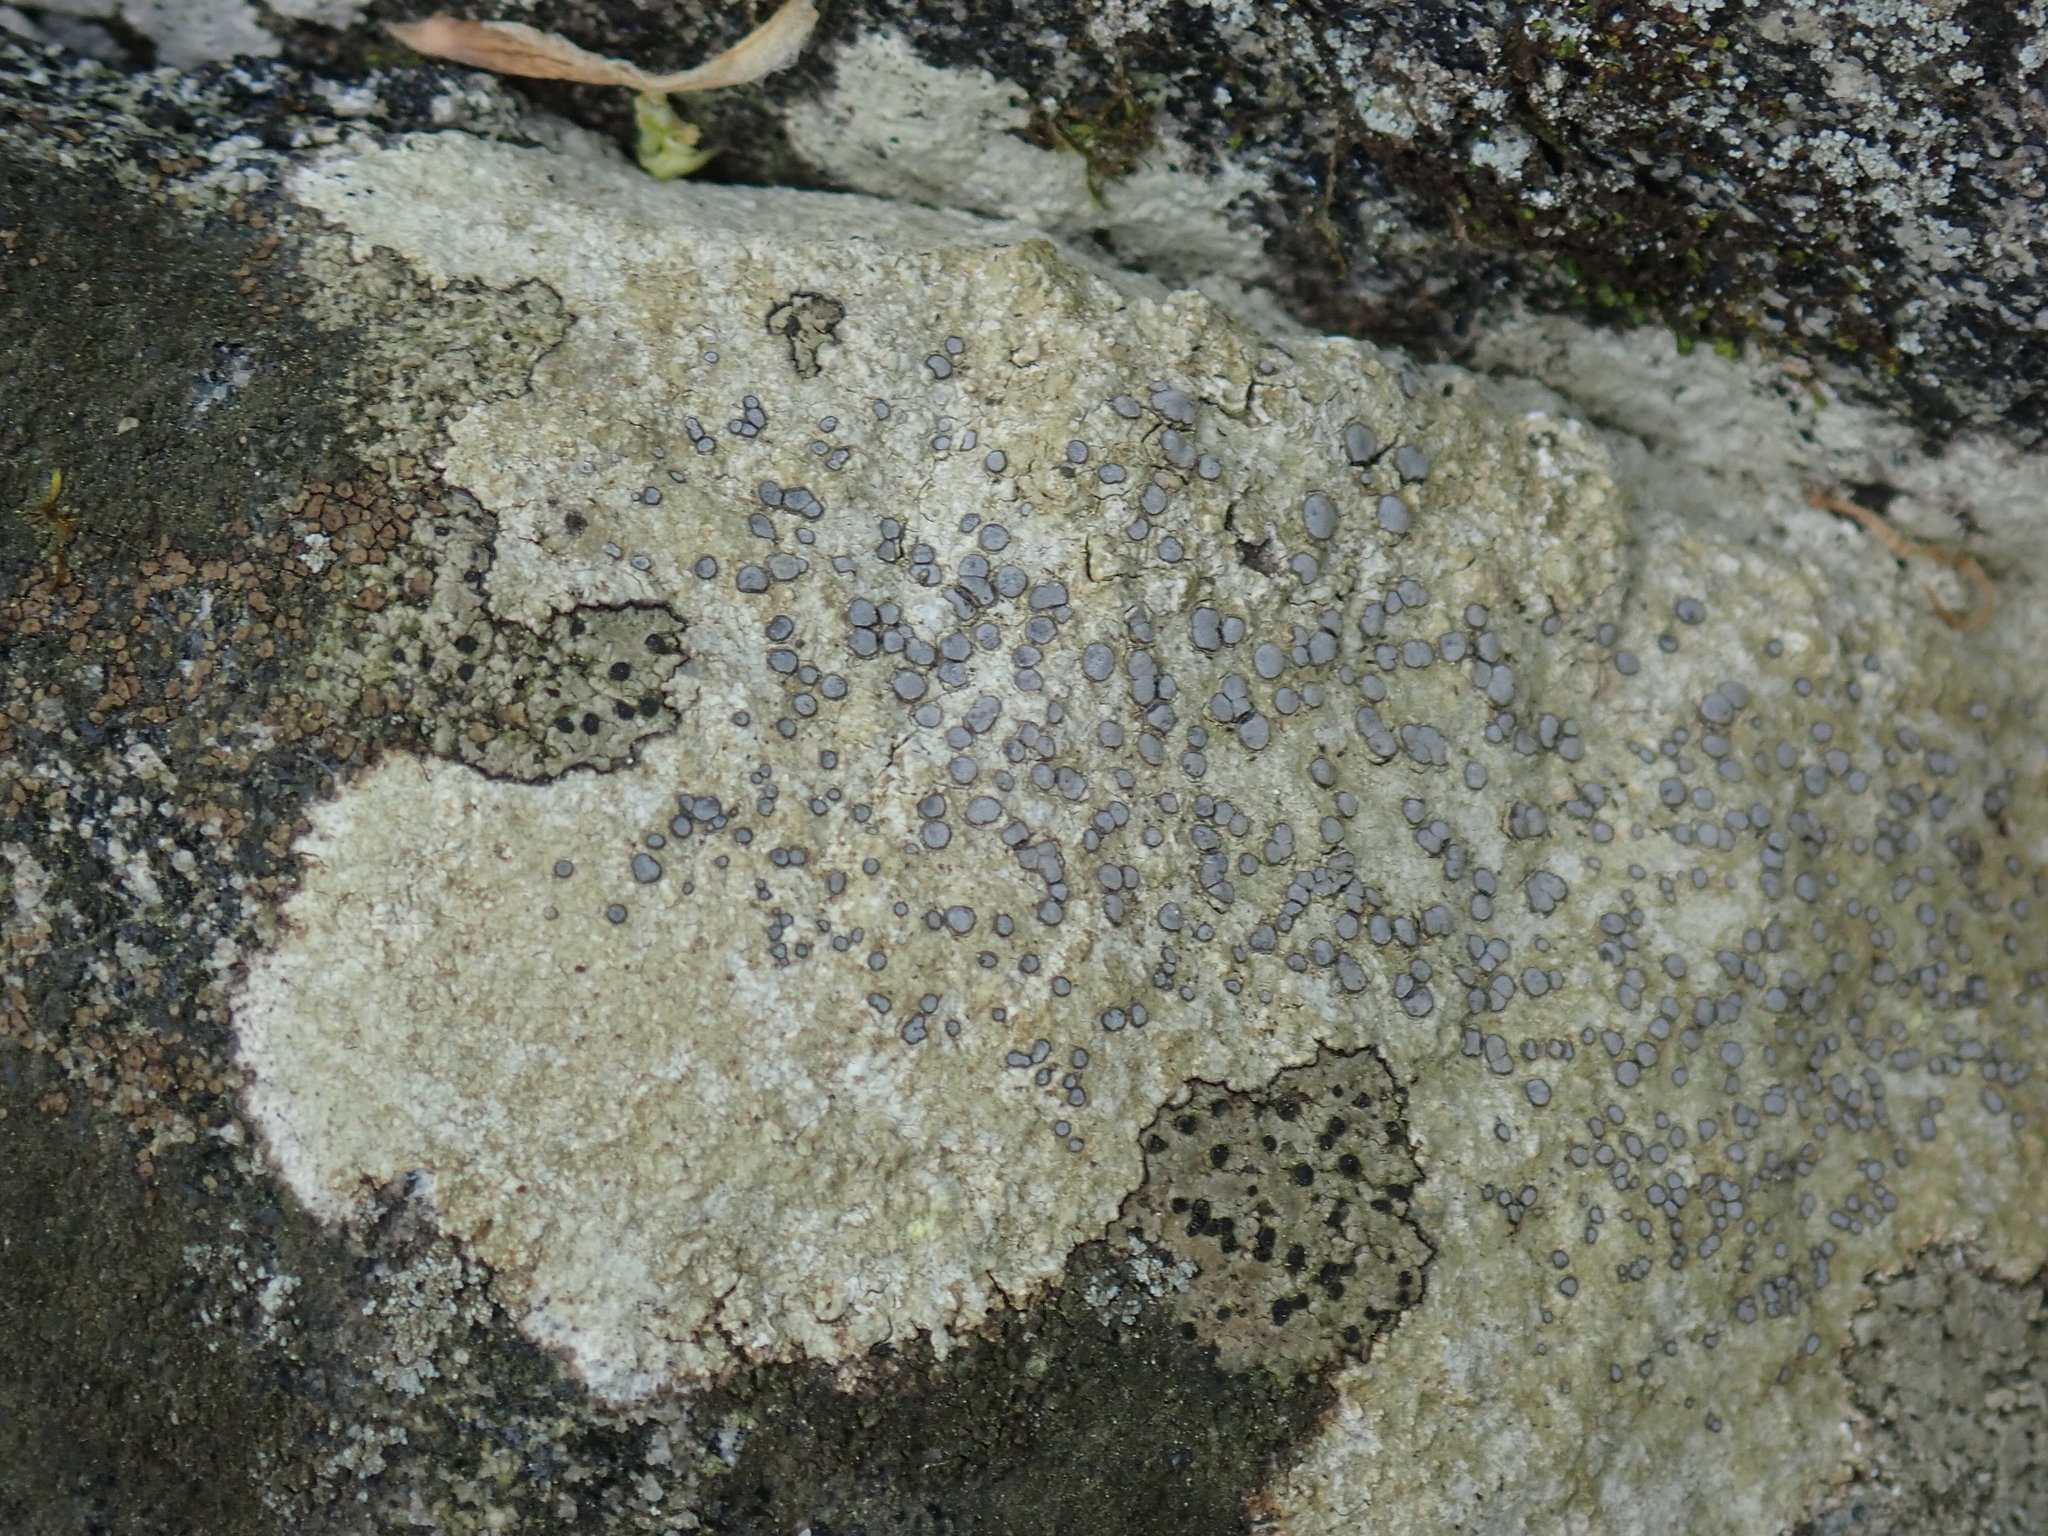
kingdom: Fungi
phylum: Ascomycota
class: Lecanoromycetes
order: Lecideales
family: Lecideaceae
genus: Porpidia
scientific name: Porpidia albocaerulescens
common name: Smokey-eyed boulder lichen
